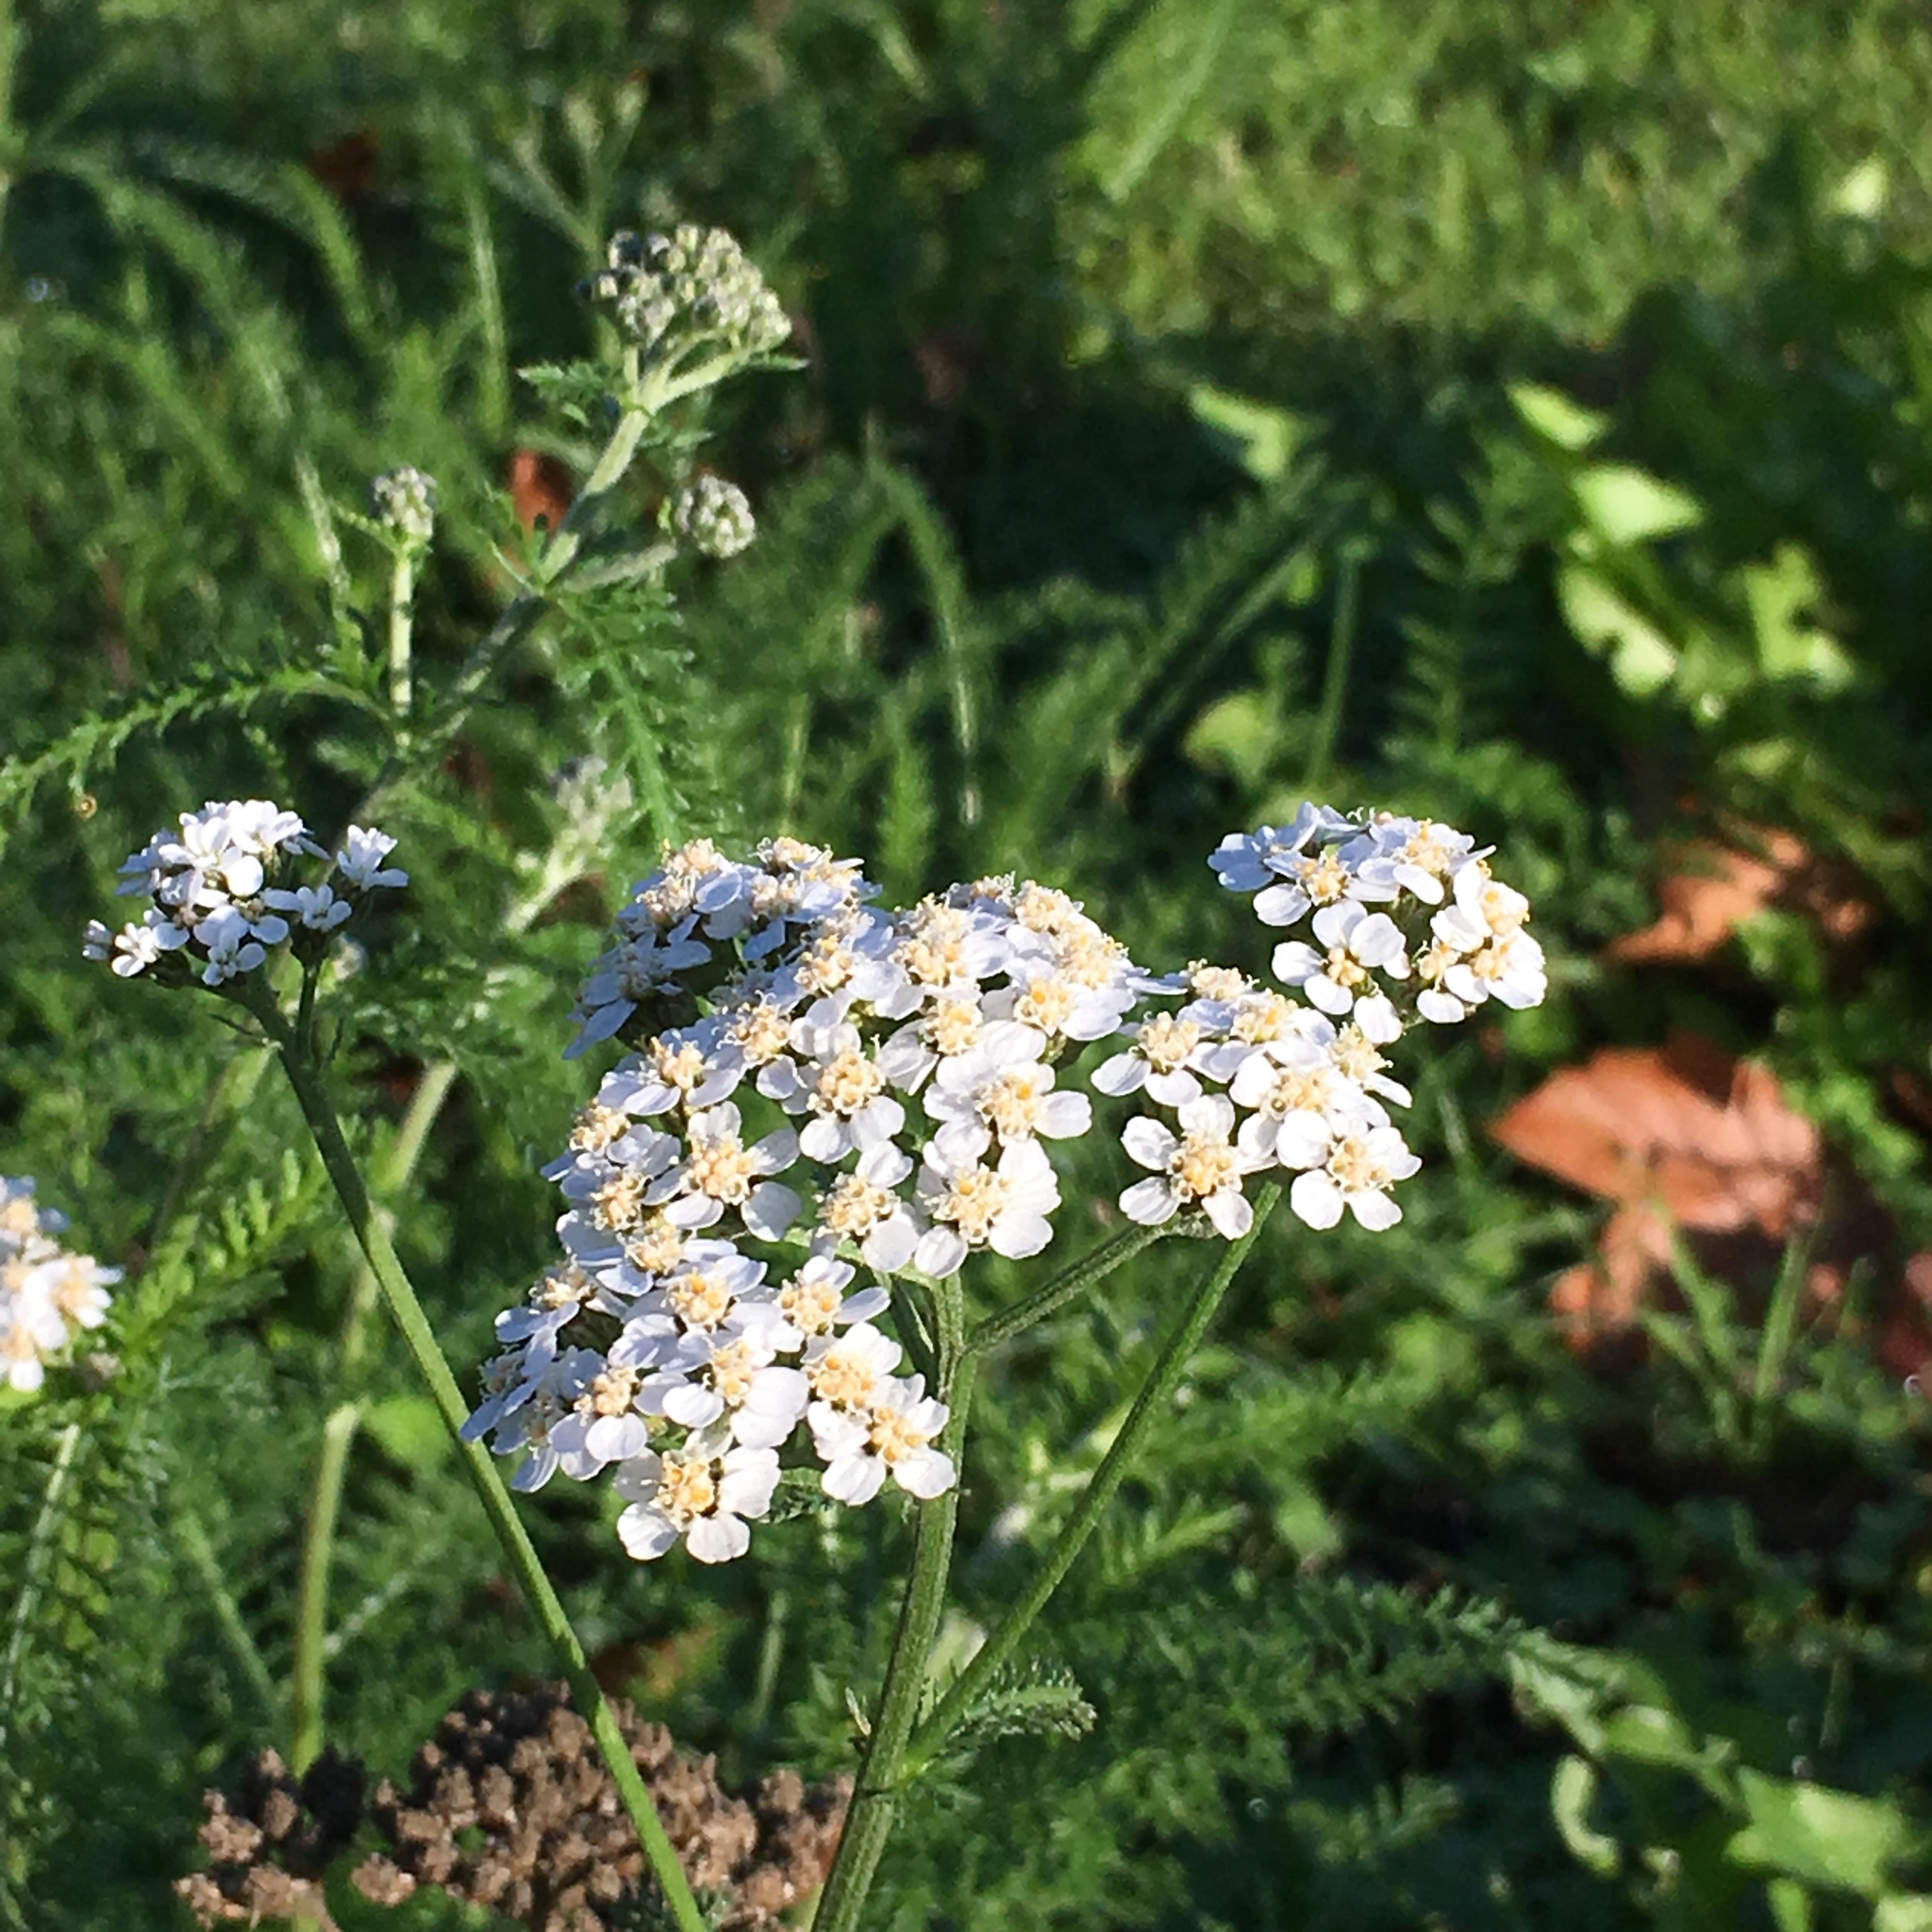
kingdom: Plantae
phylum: Tracheophyta
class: Magnoliopsida
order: Asterales
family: Asteraceae
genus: Achillea
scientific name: Achillea millefolium
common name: Yarrow
